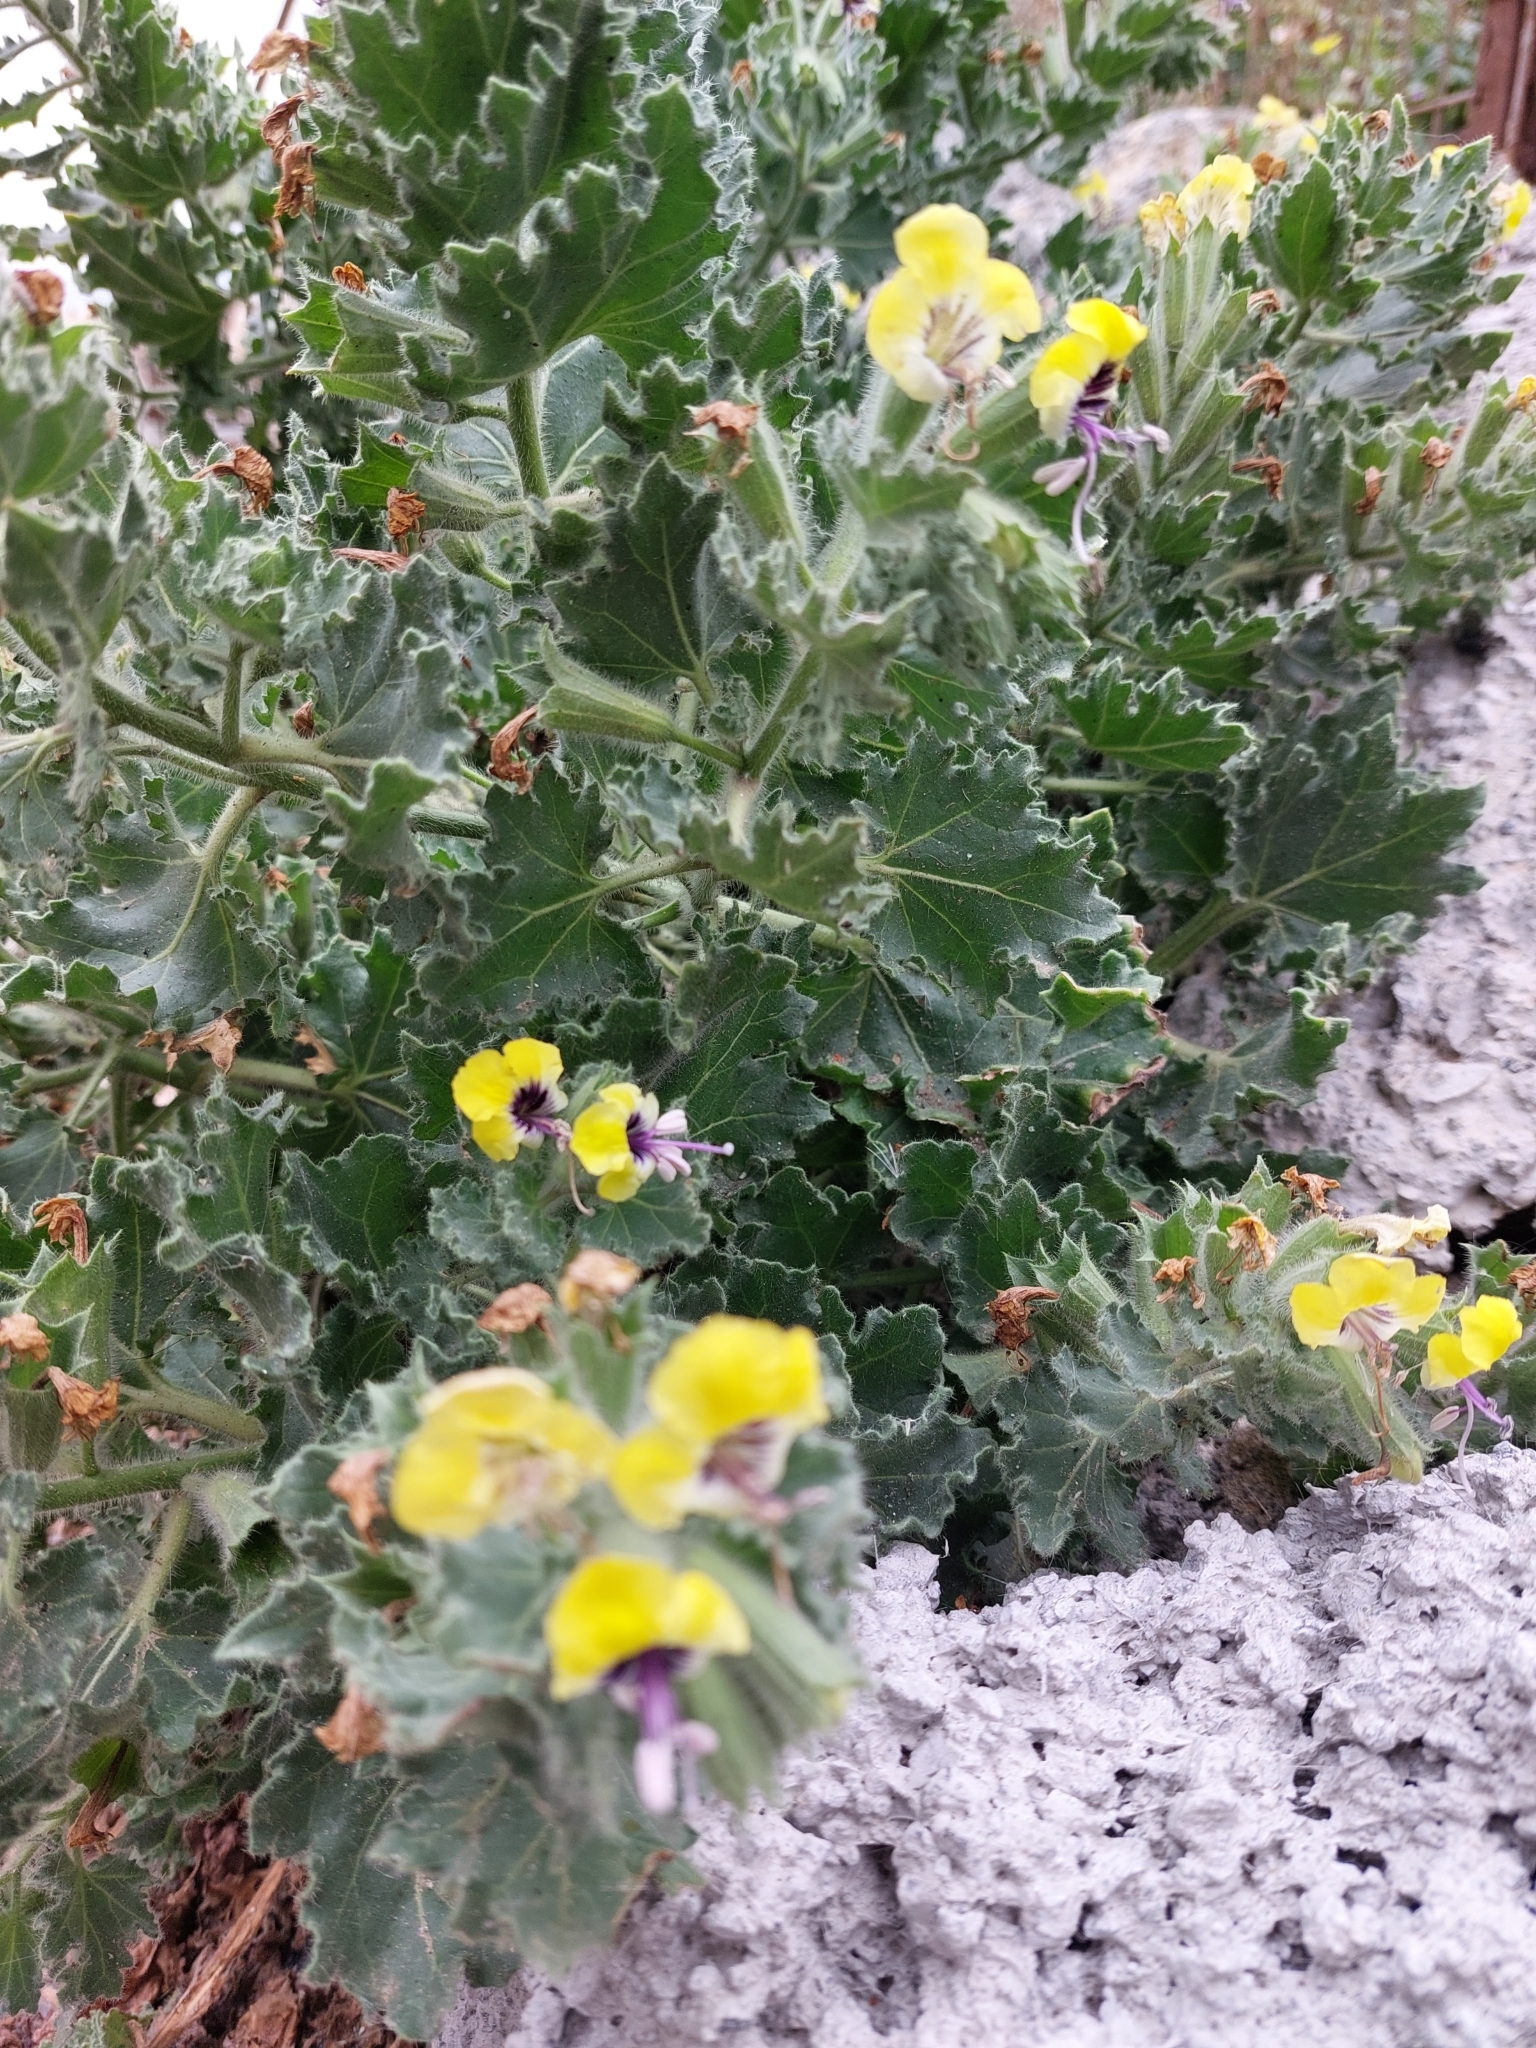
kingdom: Plantae
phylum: Tracheophyta
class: Magnoliopsida
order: Solanales
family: Solanaceae
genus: Hyoscyamus
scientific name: Hyoscyamus aureus
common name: Golden henbane
